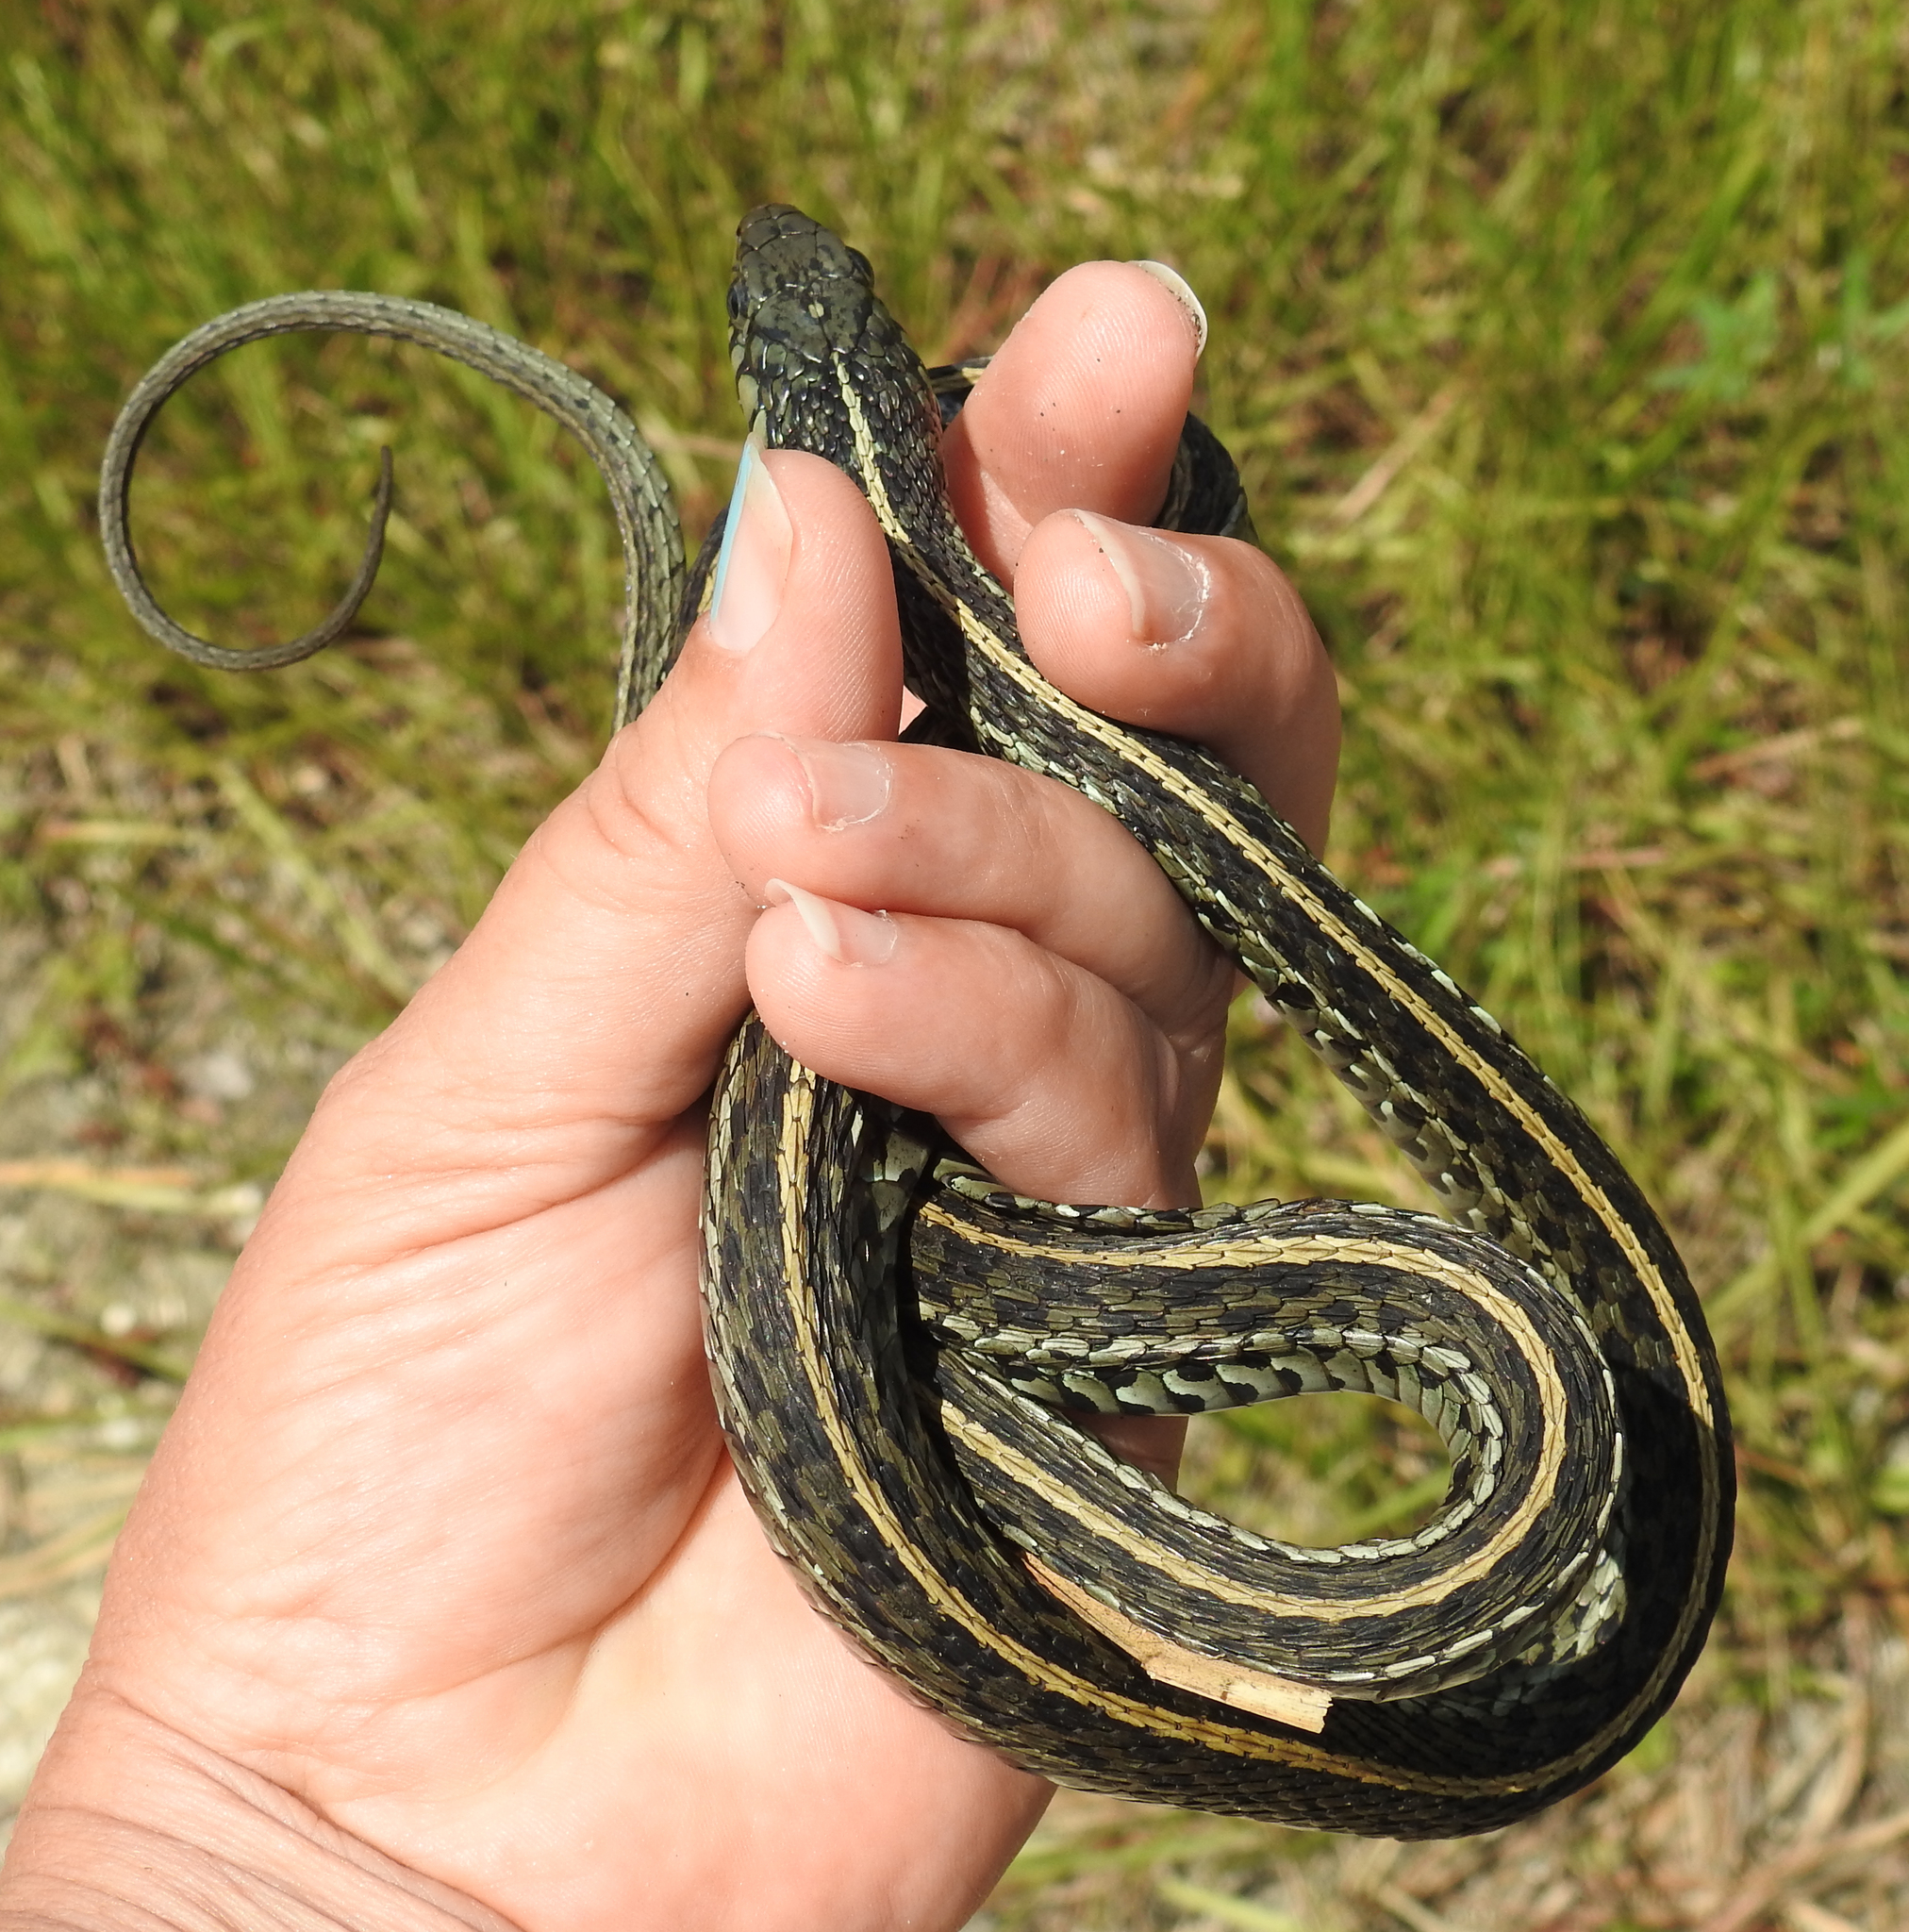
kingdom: Animalia
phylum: Chordata
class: Squamata
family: Colubridae
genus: Thamnophis
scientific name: Thamnophis sirtalis
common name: Common garter snake
